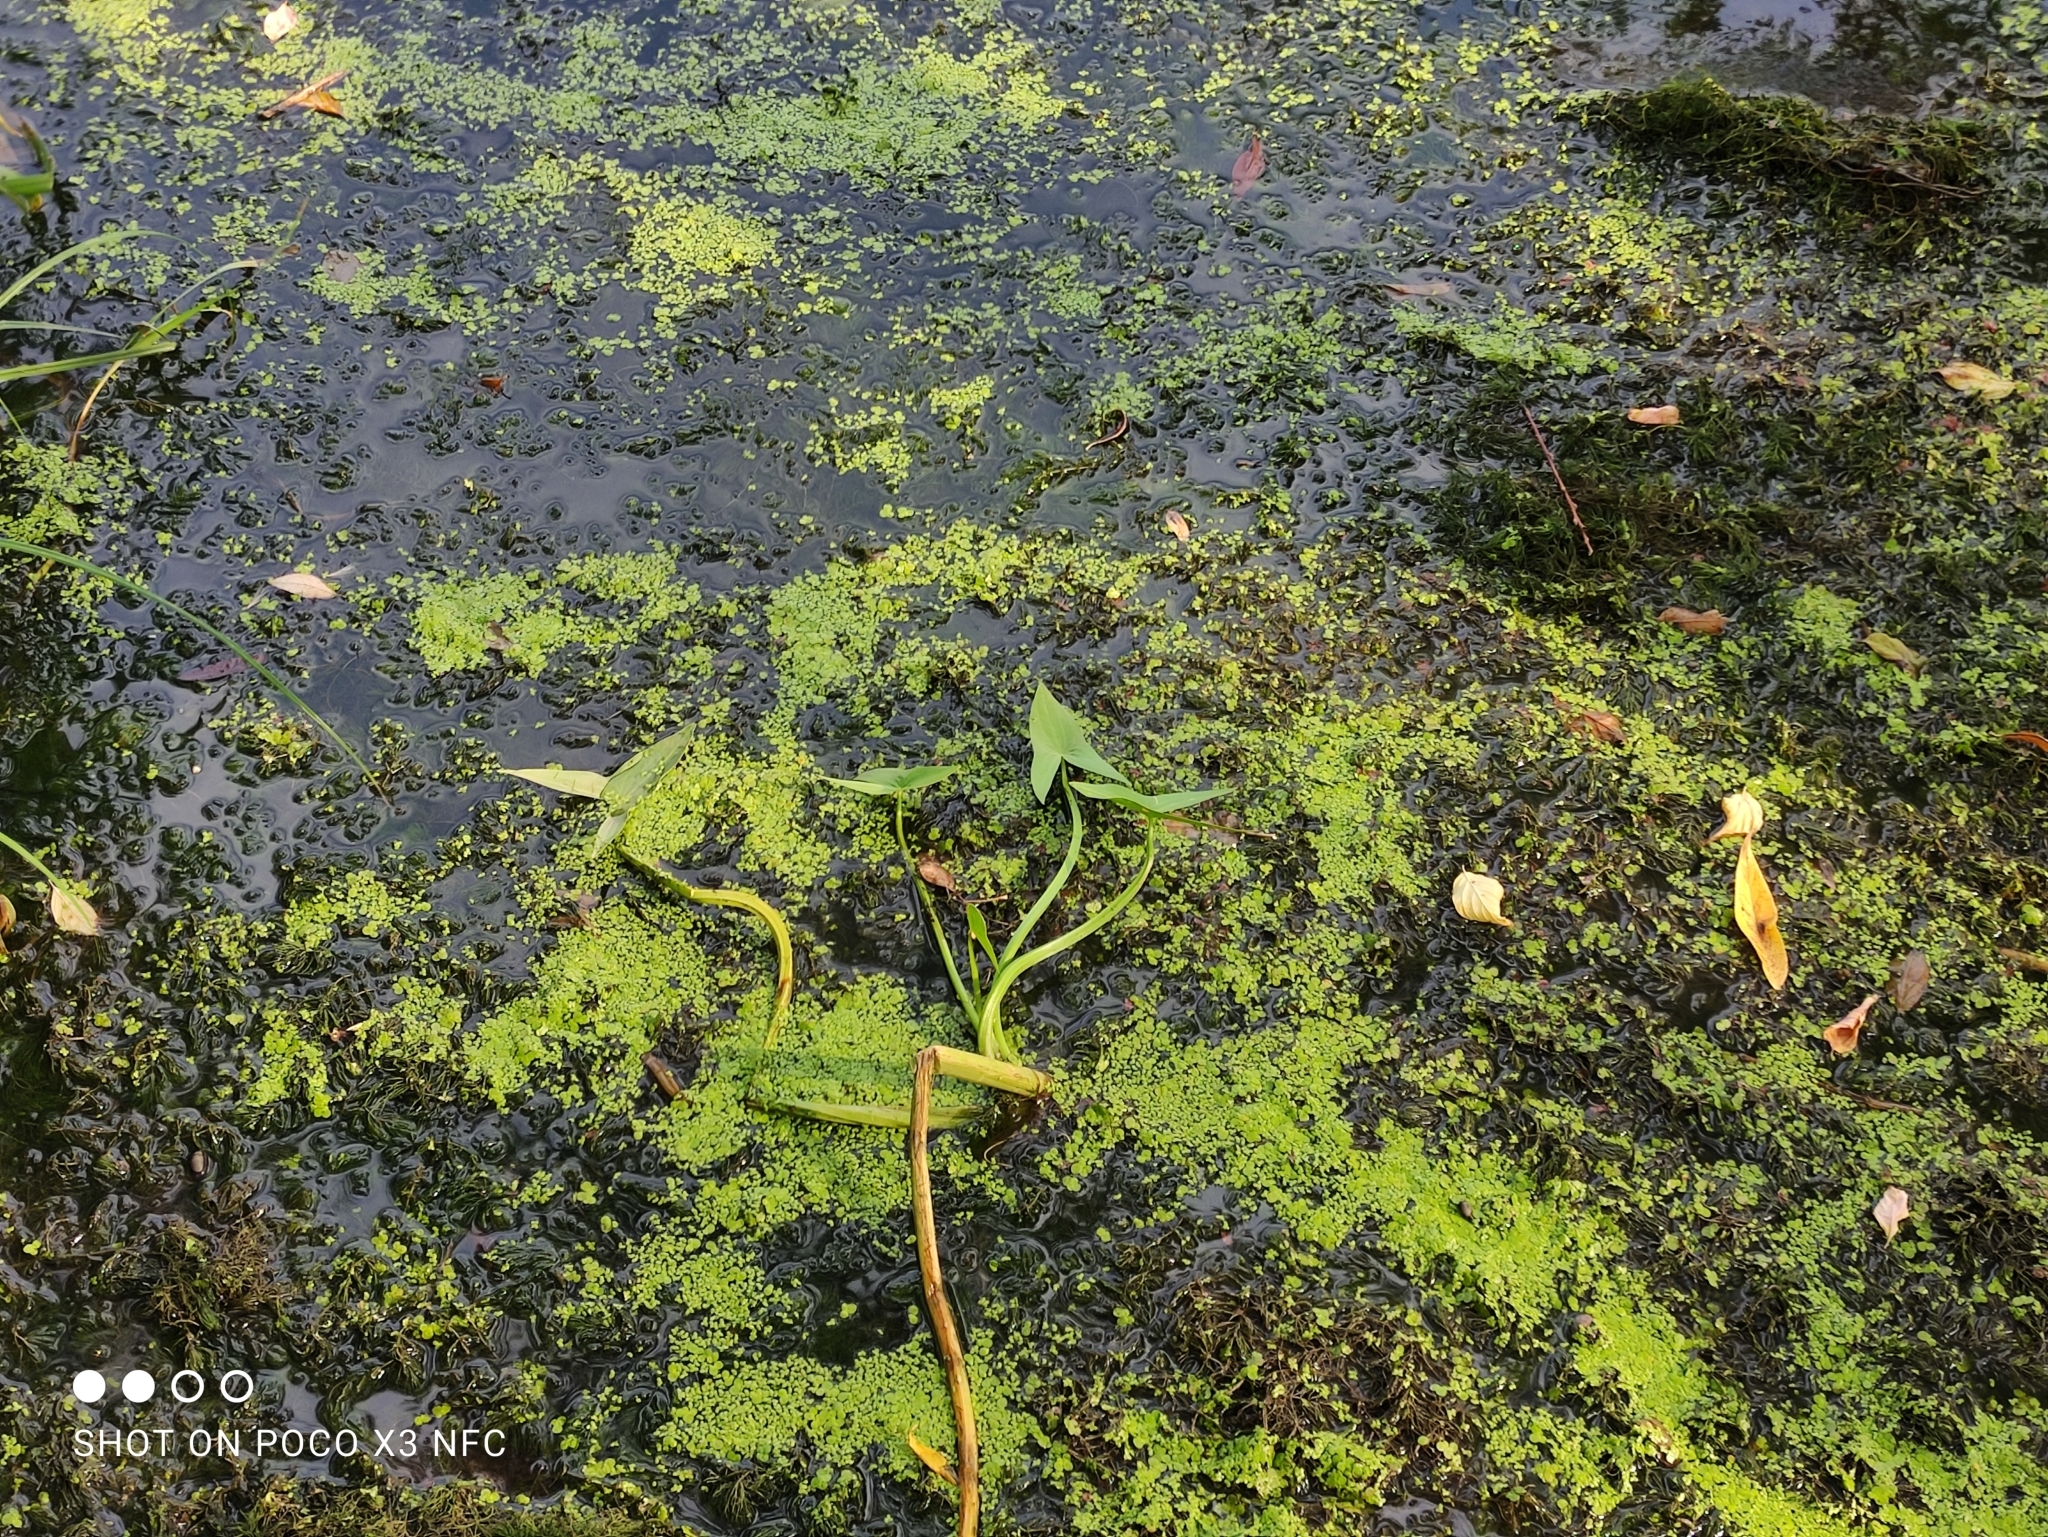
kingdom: Plantae
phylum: Tracheophyta
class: Liliopsida
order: Alismatales
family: Alismataceae
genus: Sagittaria
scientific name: Sagittaria sagittifolia
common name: Arrowhead
